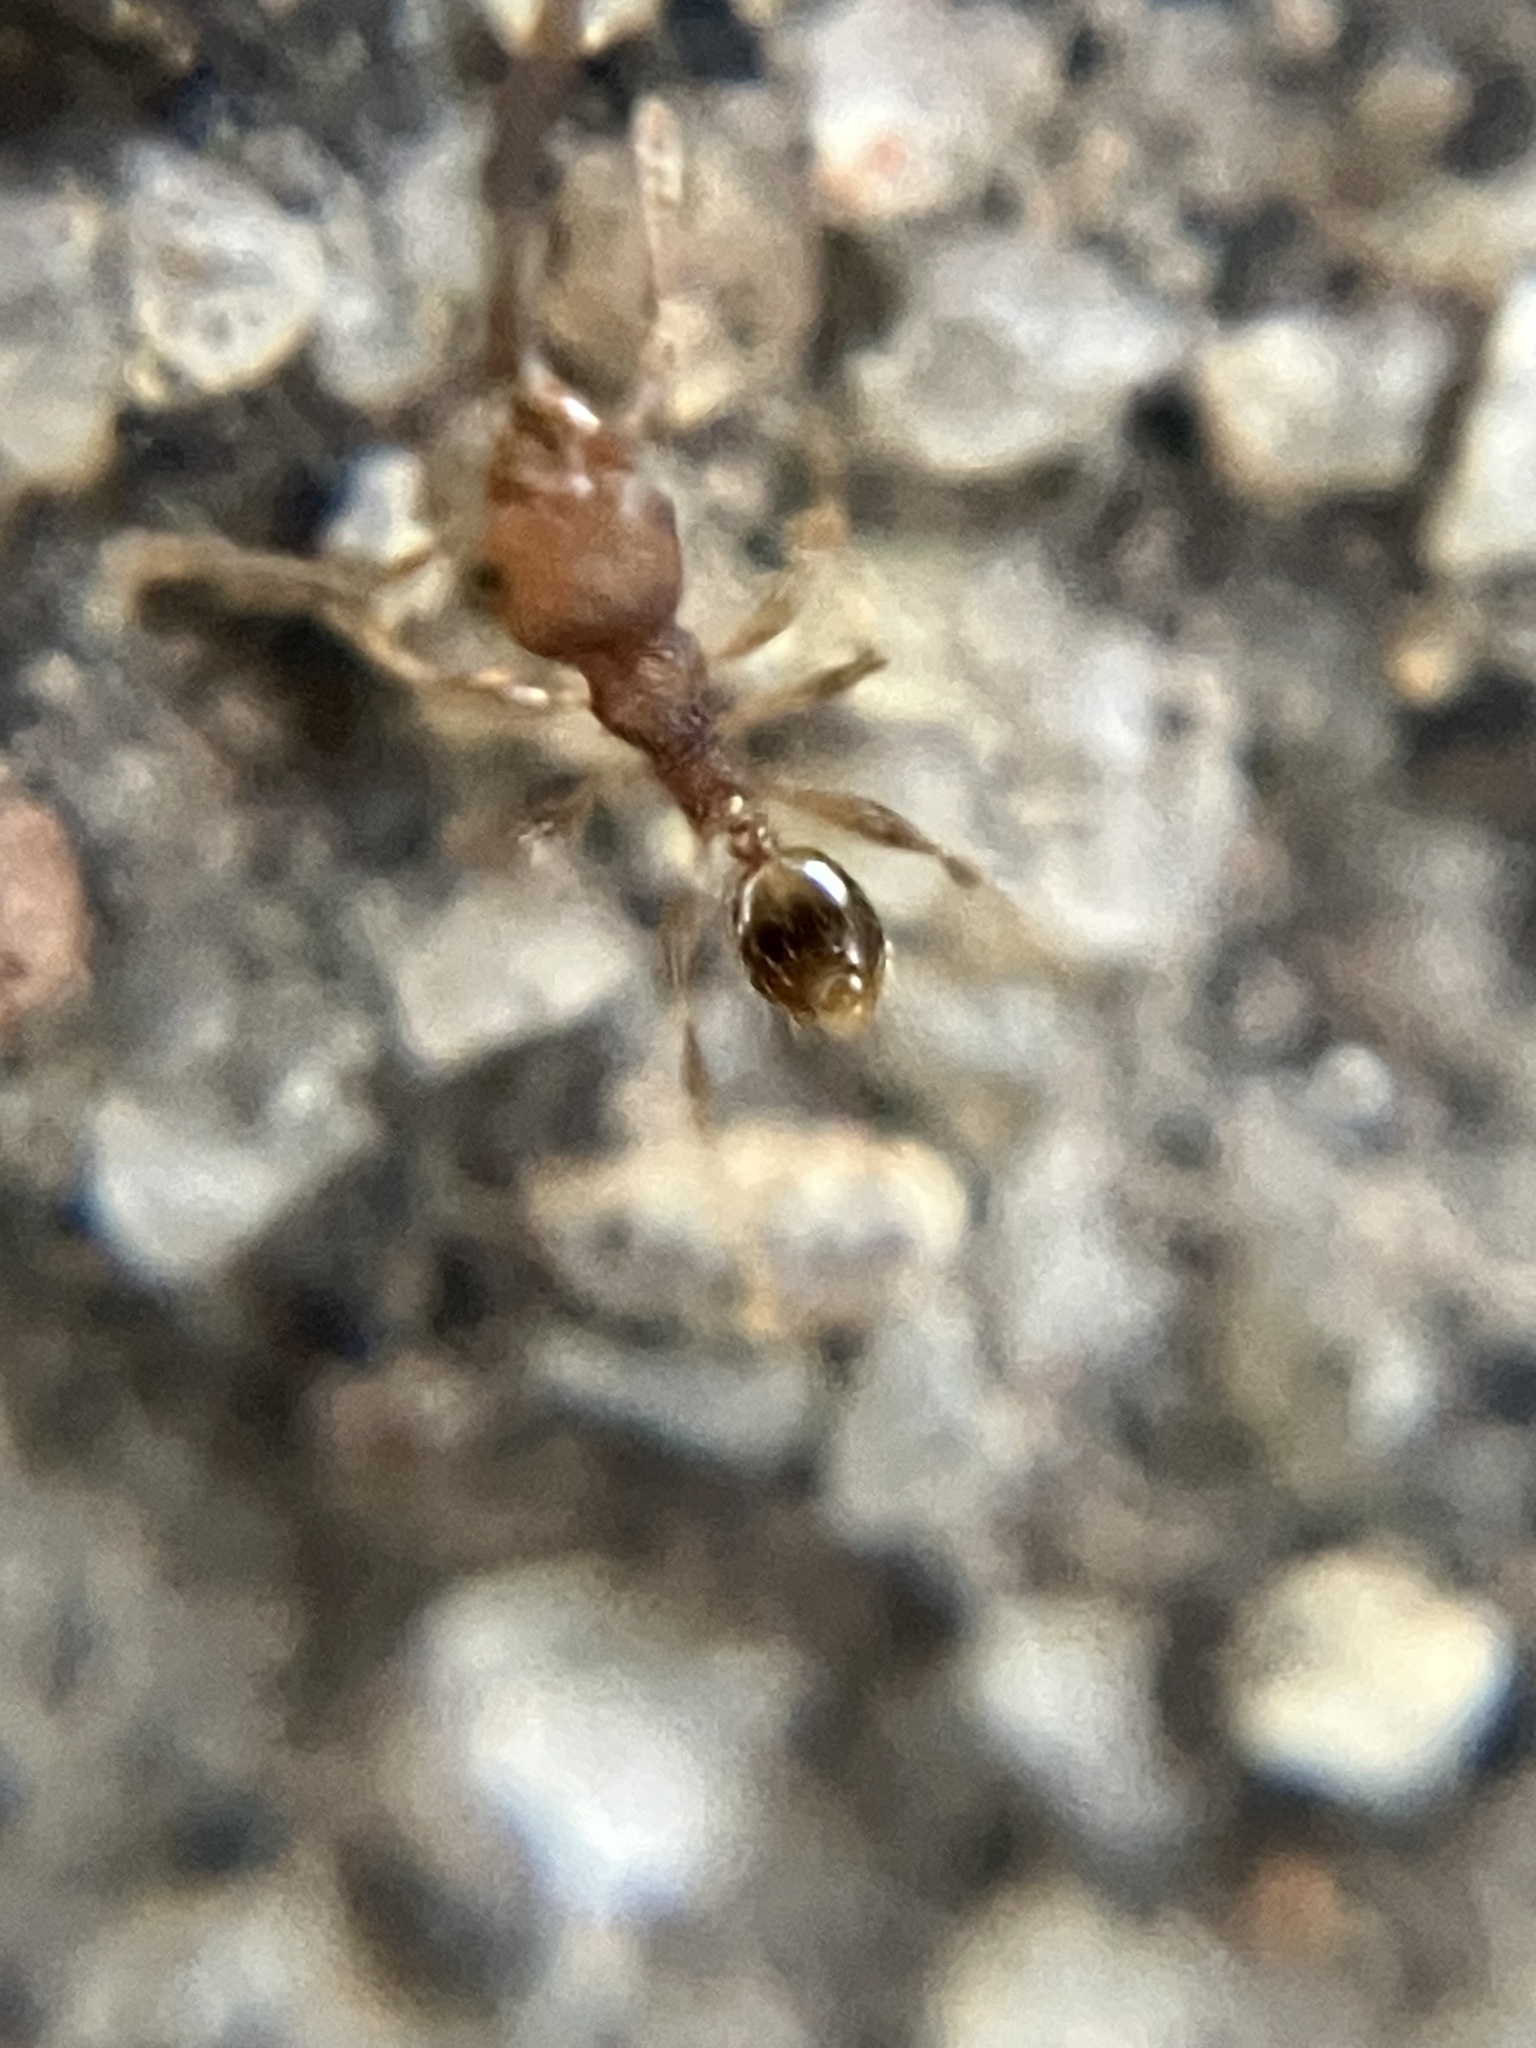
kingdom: Animalia
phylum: Arthropoda
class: Insecta
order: Hymenoptera
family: Formicidae
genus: Pheidole
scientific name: Pheidole parva
